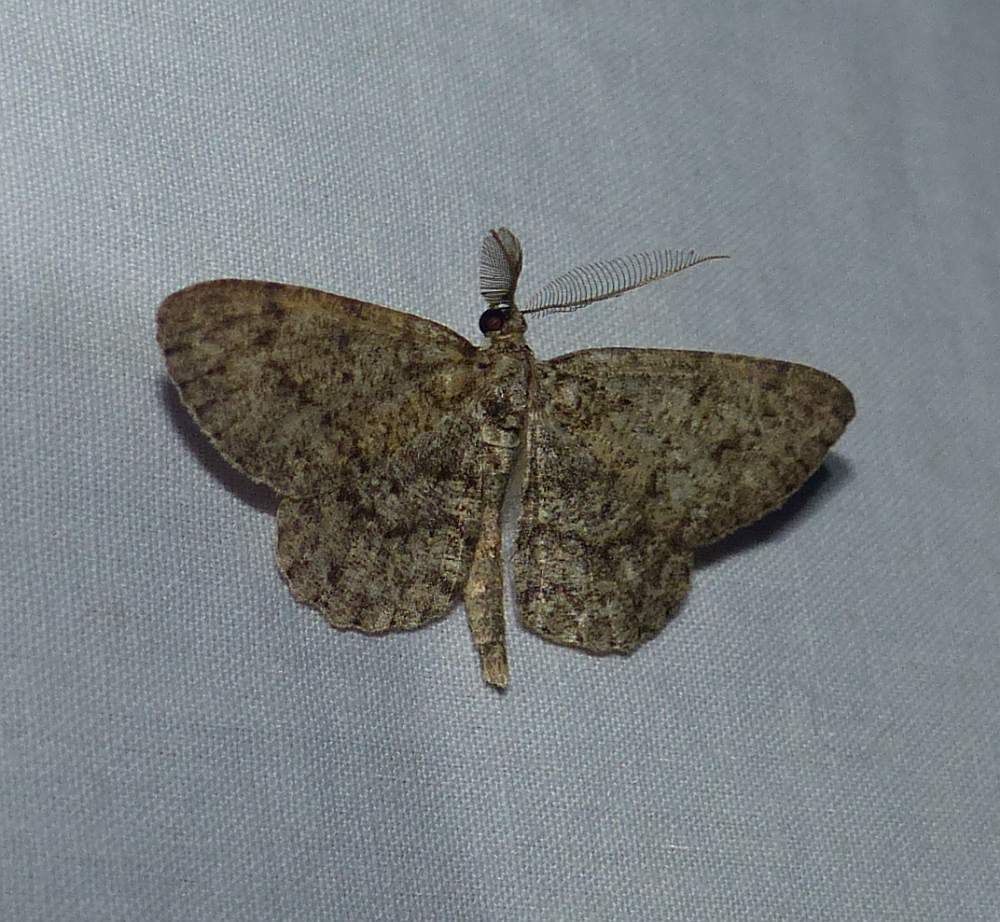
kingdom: Animalia
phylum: Arthropoda
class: Insecta
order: Lepidoptera
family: Geometridae
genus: Protoboarmia
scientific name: Protoboarmia porcelaria
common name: Porcelain gray
